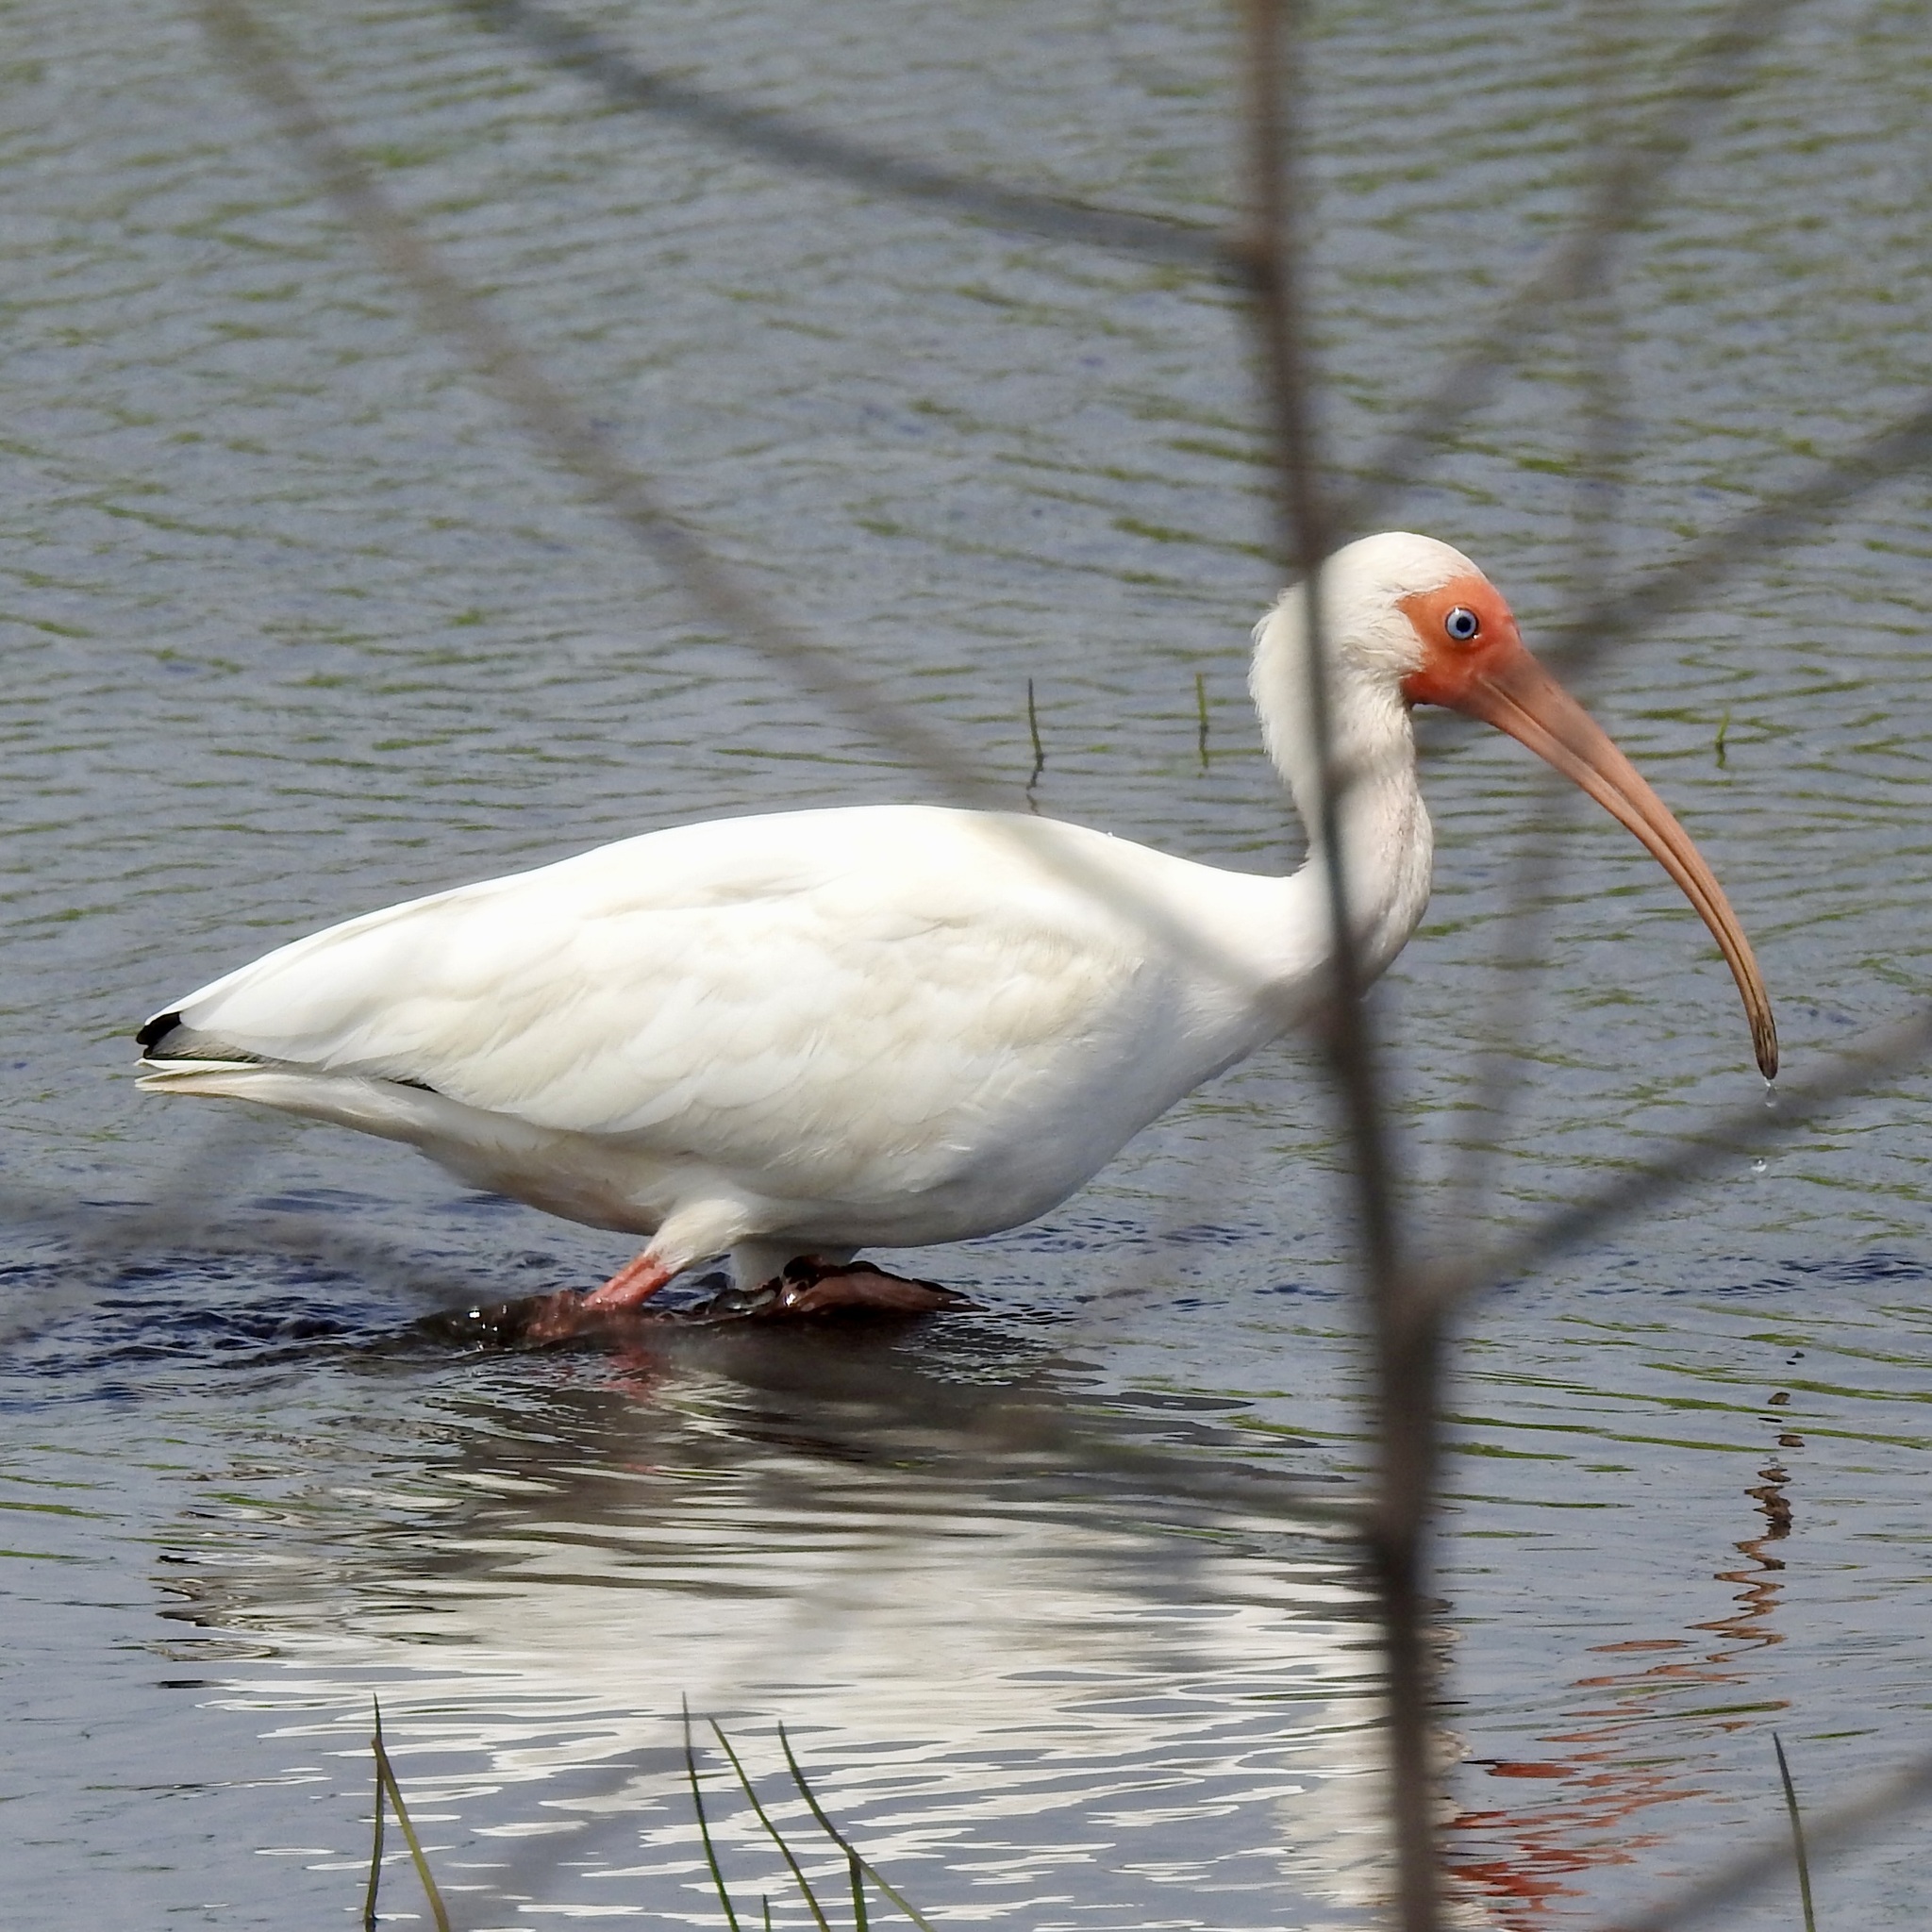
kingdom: Animalia
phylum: Chordata
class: Aves
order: Pelecaniformes
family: Threskiornithidae
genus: Eudocimus
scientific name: Eudocimus albus
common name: White ibis
